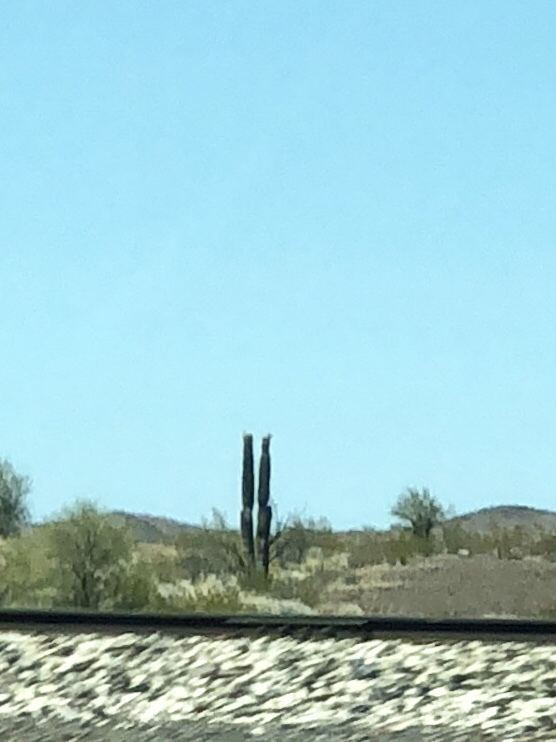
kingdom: Plantae
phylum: Tracheophyta
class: Magnoliopsida
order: Caryophyllales
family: Cactaceae
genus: Carnegiea
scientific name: Carnegiea gigantea
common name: Saguaro
